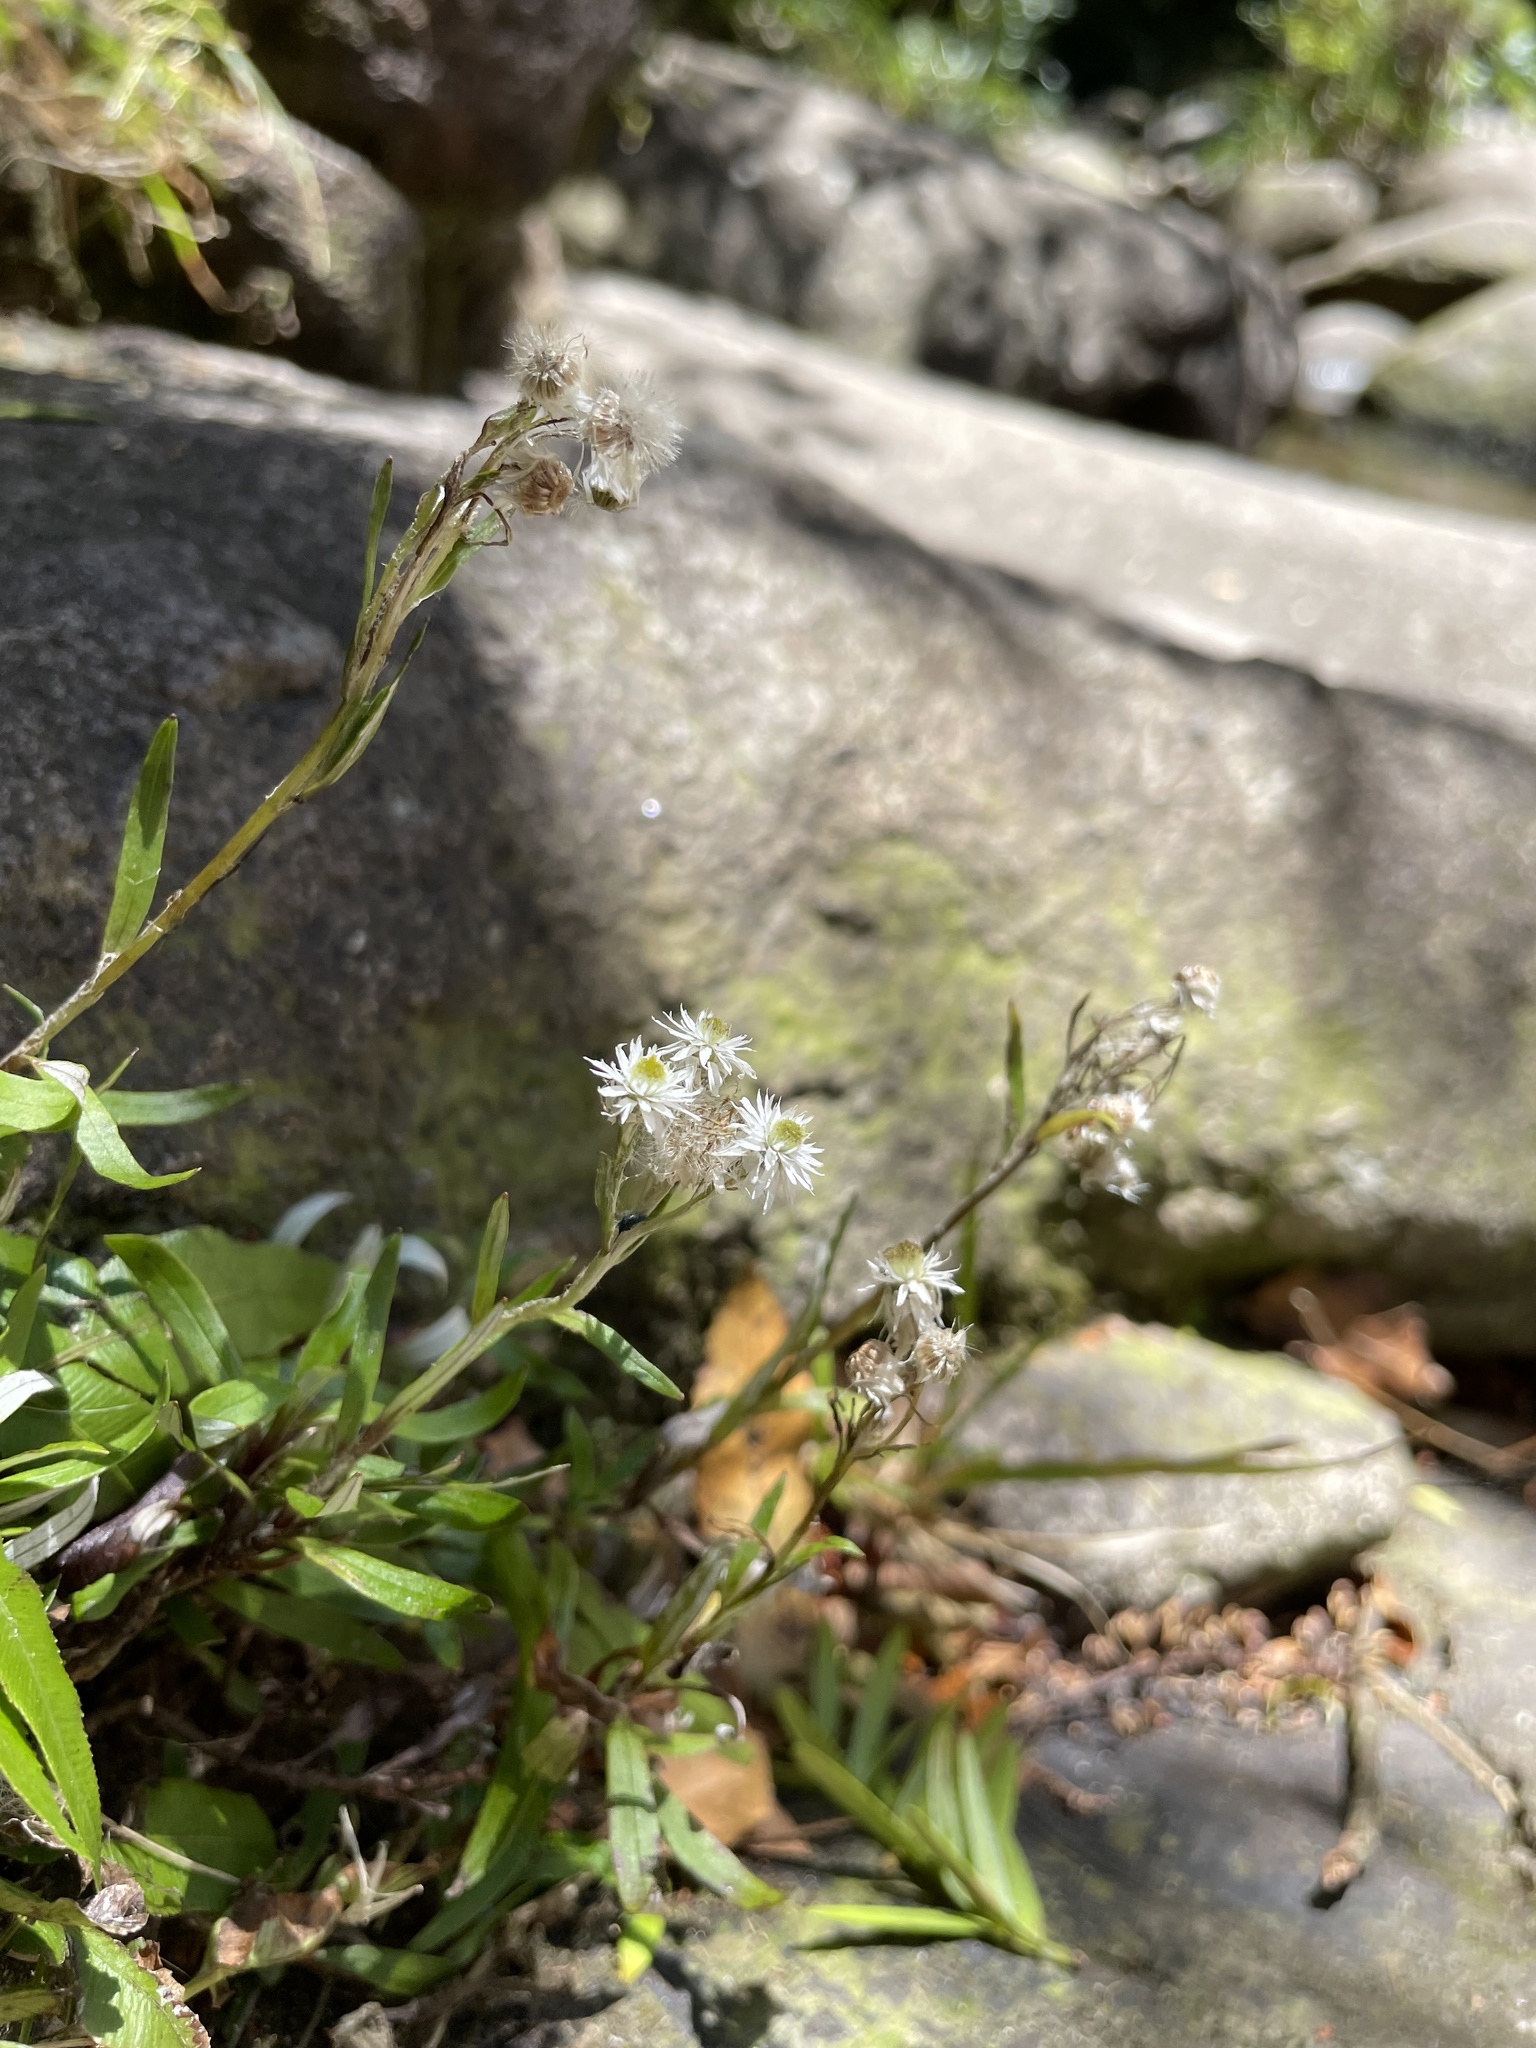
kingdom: Plantae
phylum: Tracheophyta
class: Magnoliopsida
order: Asterales
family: Asteraceae
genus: Anaphalioides
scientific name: Anaphalioides trinervis
